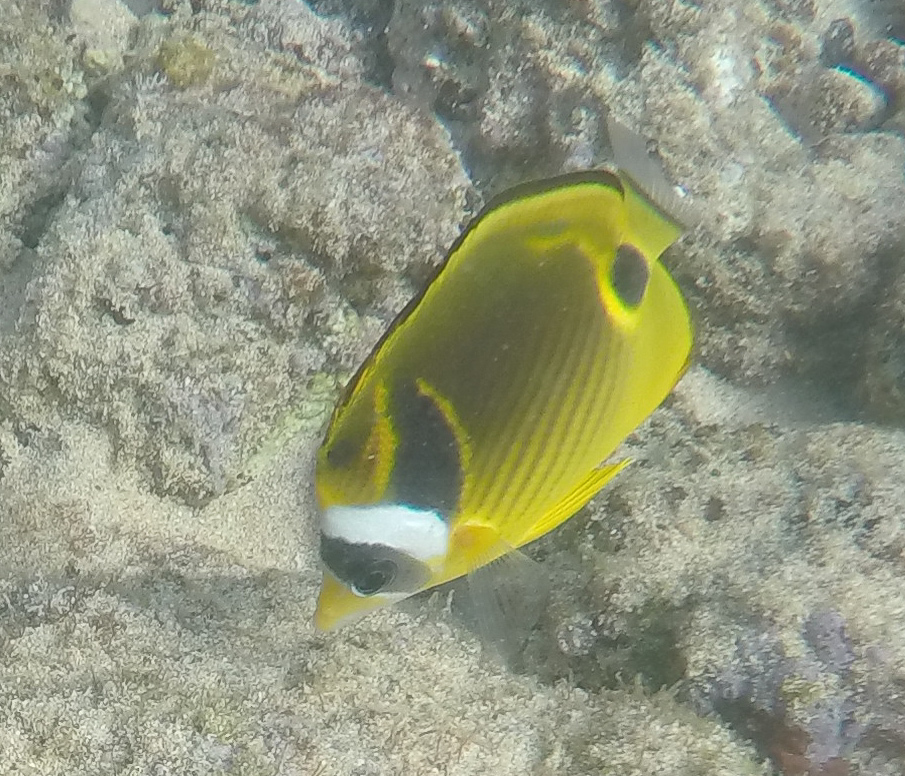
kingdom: Animalia
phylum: Chordata
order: Perciformes
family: Chaetodontidae
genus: Chaetodon
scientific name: Chaetodon lunula
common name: Raccoon butterflyfish
